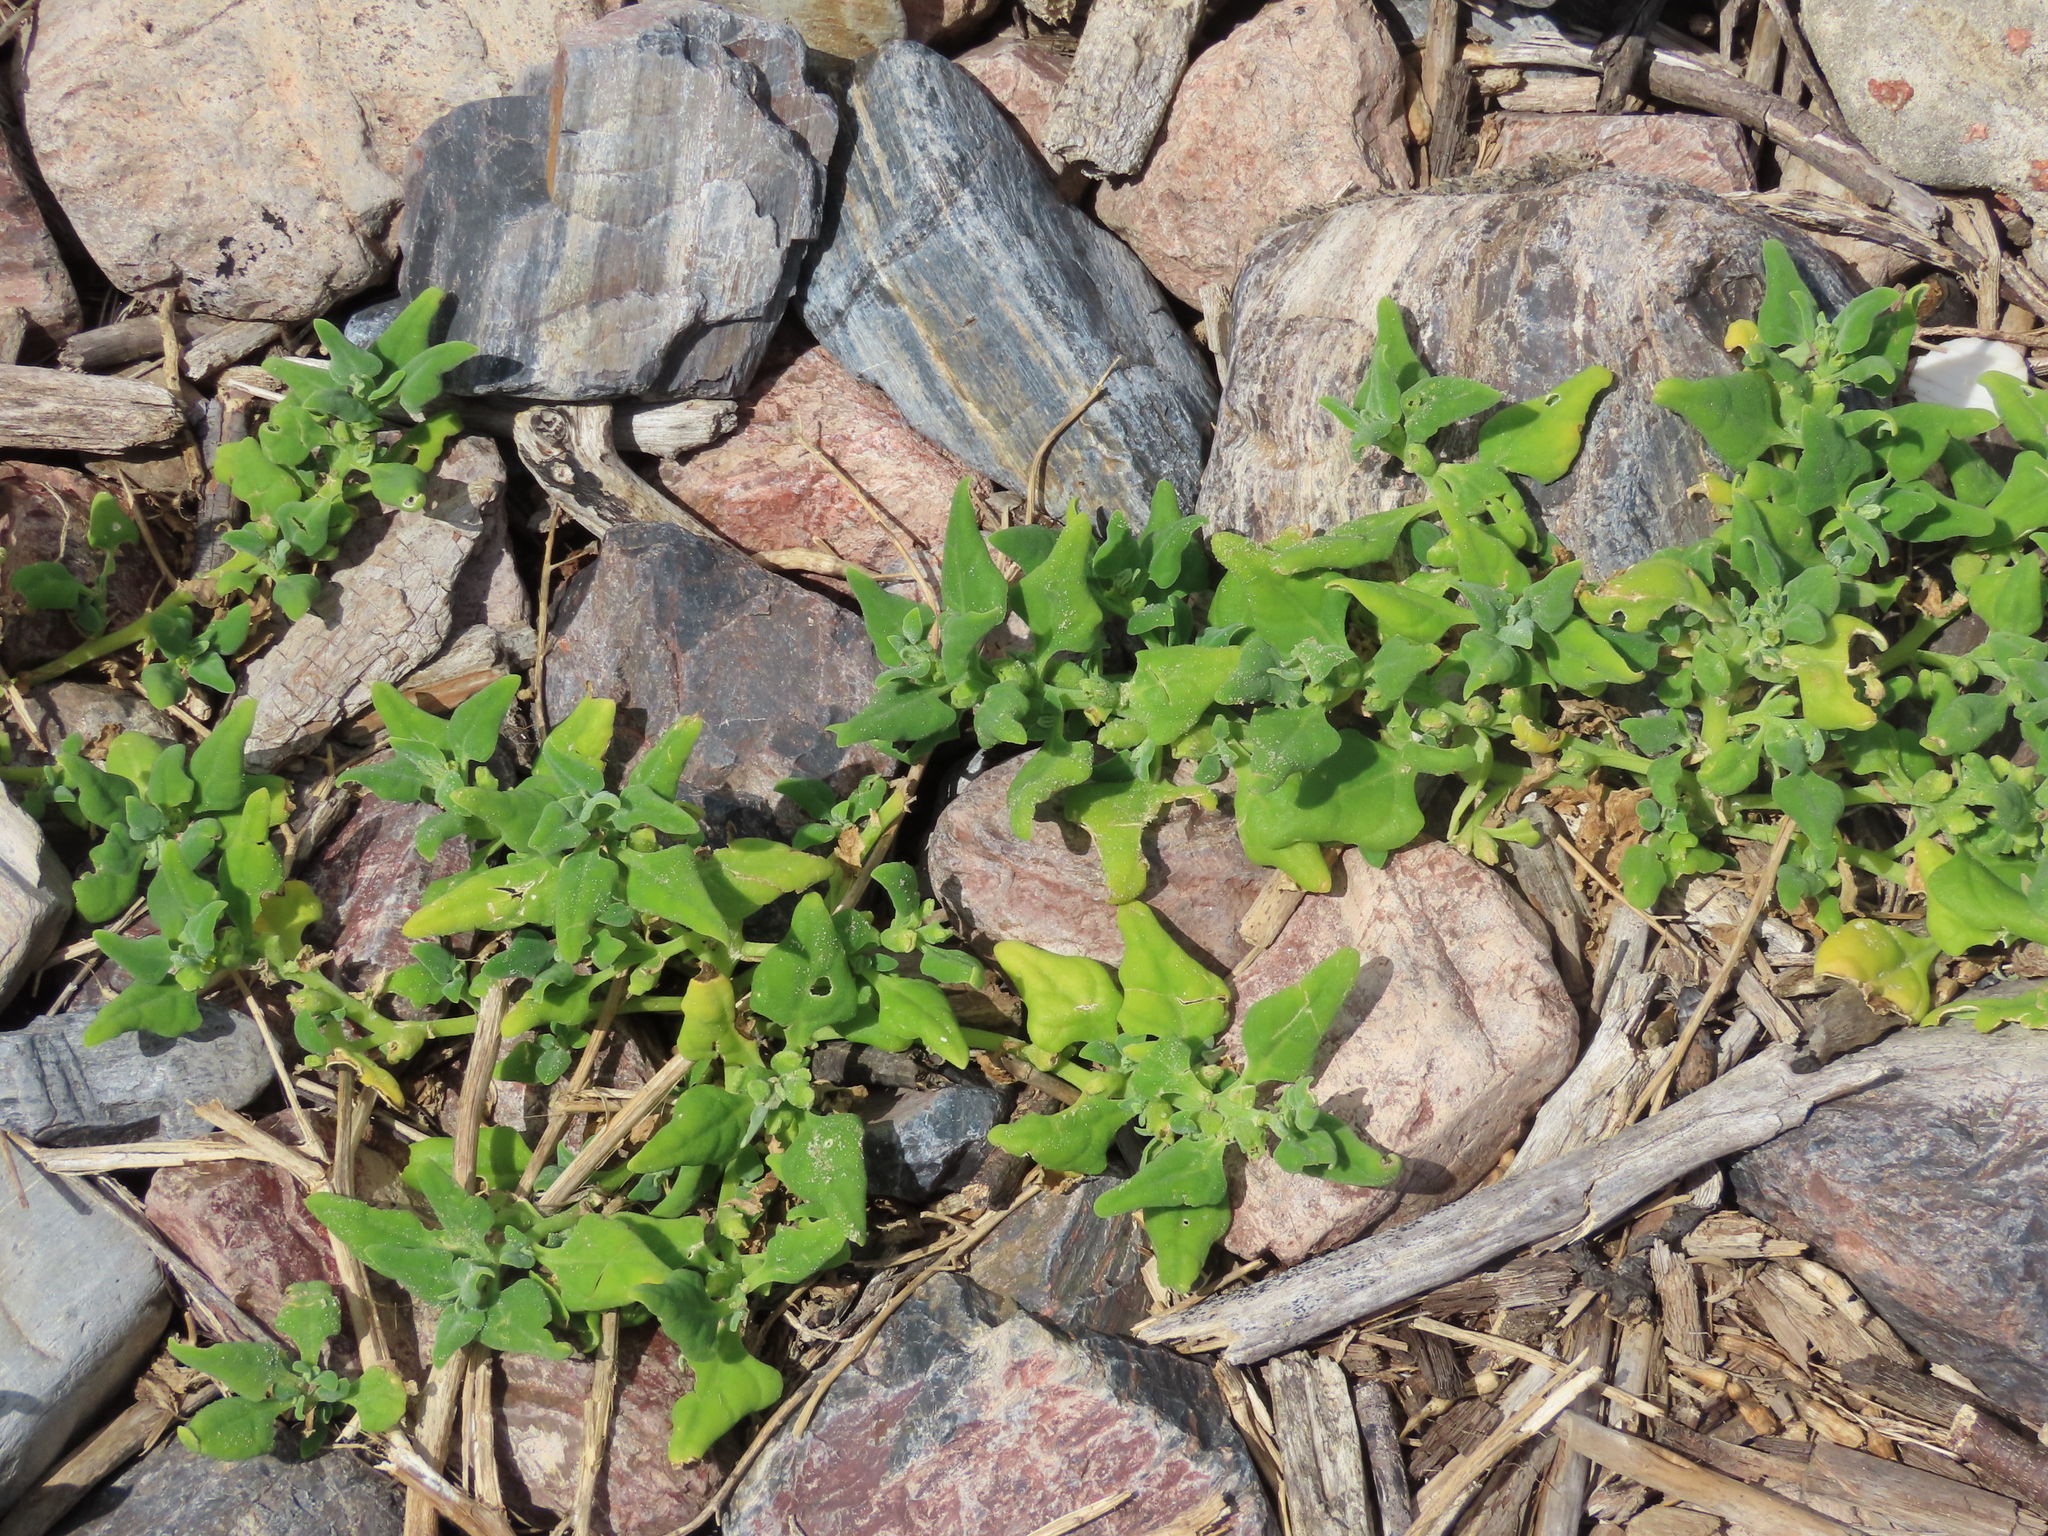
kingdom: Plantae
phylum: Tracheophyta
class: Magnoliopsida
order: Caryophyllales
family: Aizoaceae
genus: Tetragonia
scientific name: Tetragonia tetragonoides
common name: New zealand-spinach
